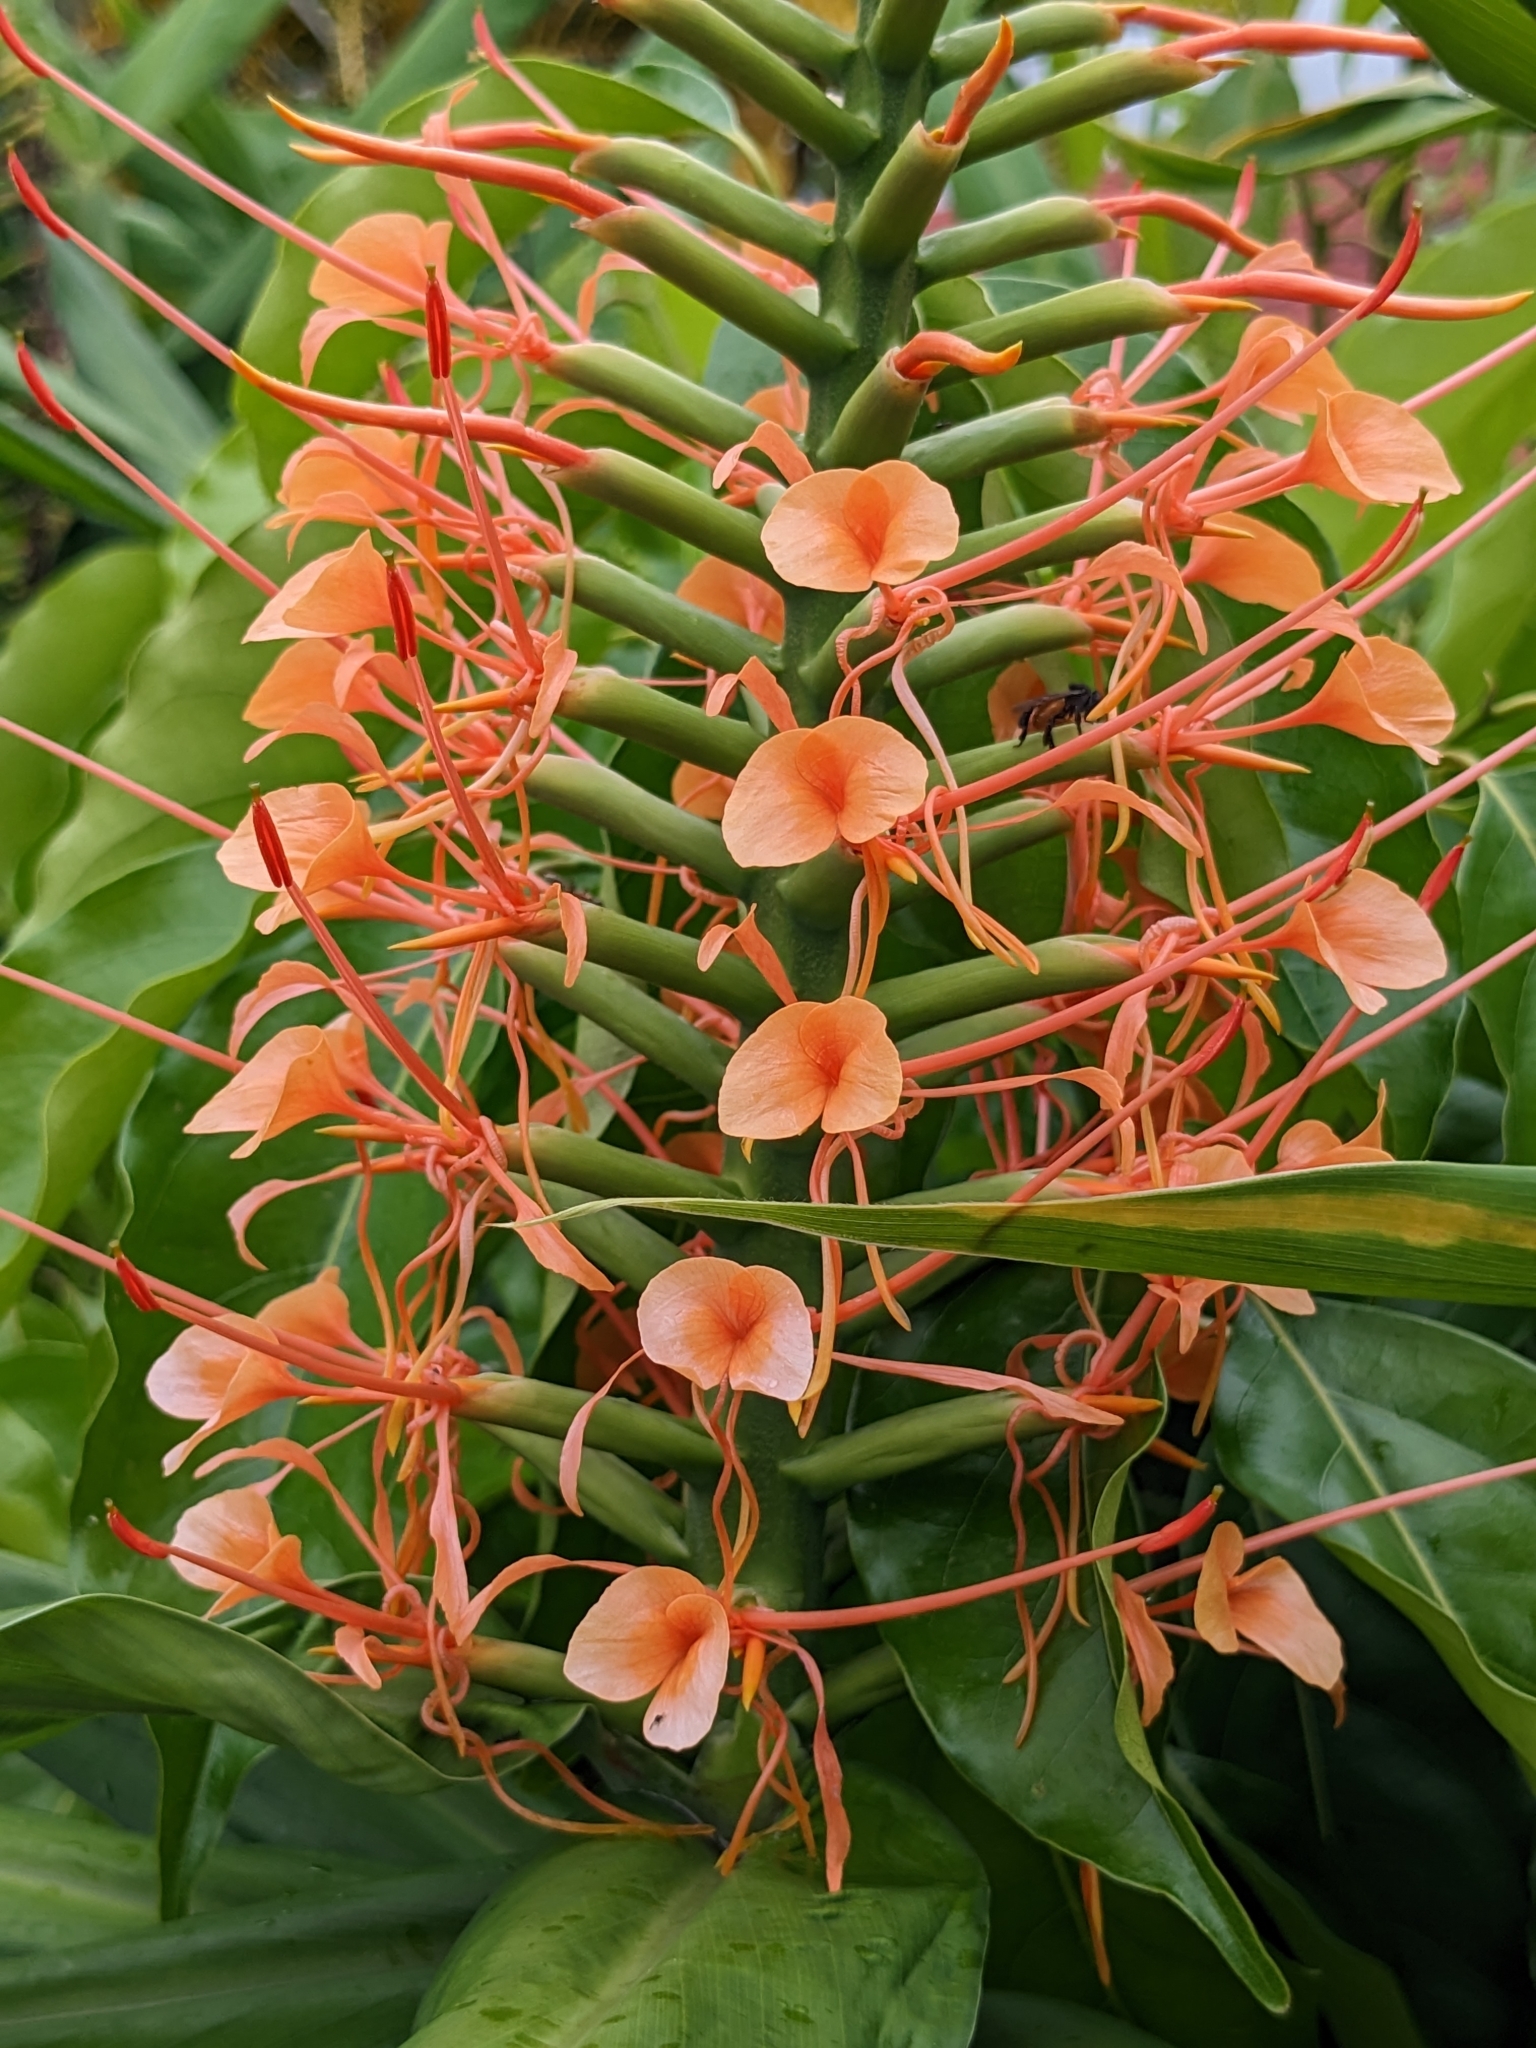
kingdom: Plantae
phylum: Tracheophyta
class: Liliopsida
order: Zingiberales
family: Zingiberaceae
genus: Hedychium
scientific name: Hedychium coccineum
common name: Red ginger-lily
